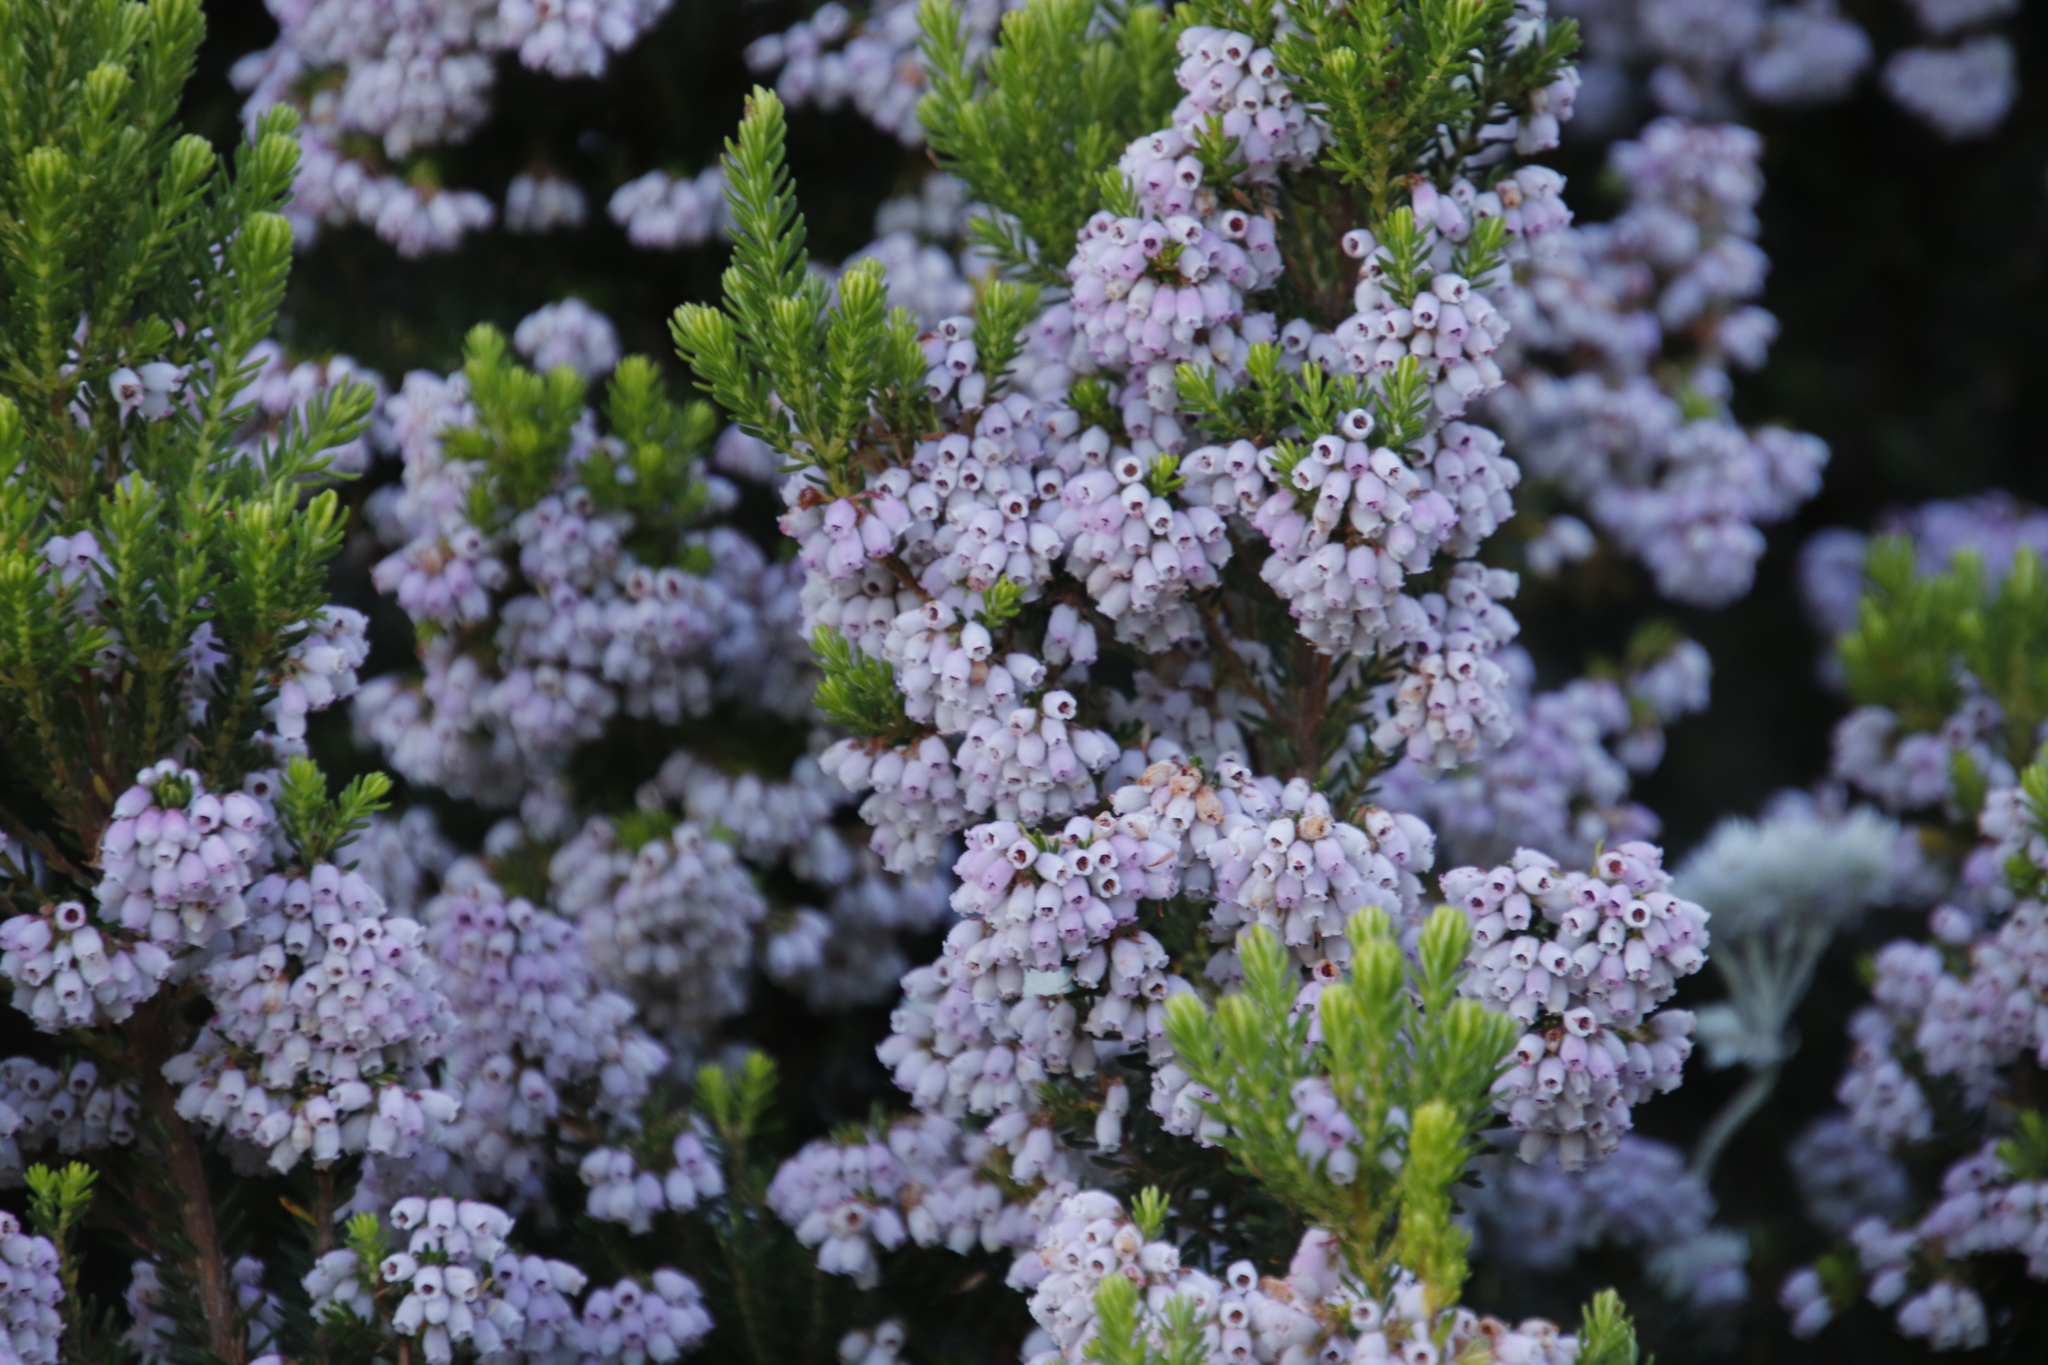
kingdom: Plantae
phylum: Tracheophyta
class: Magnoliopsida
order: Ericales
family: Ericaceae
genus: Erica
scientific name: Erica caterviflora
